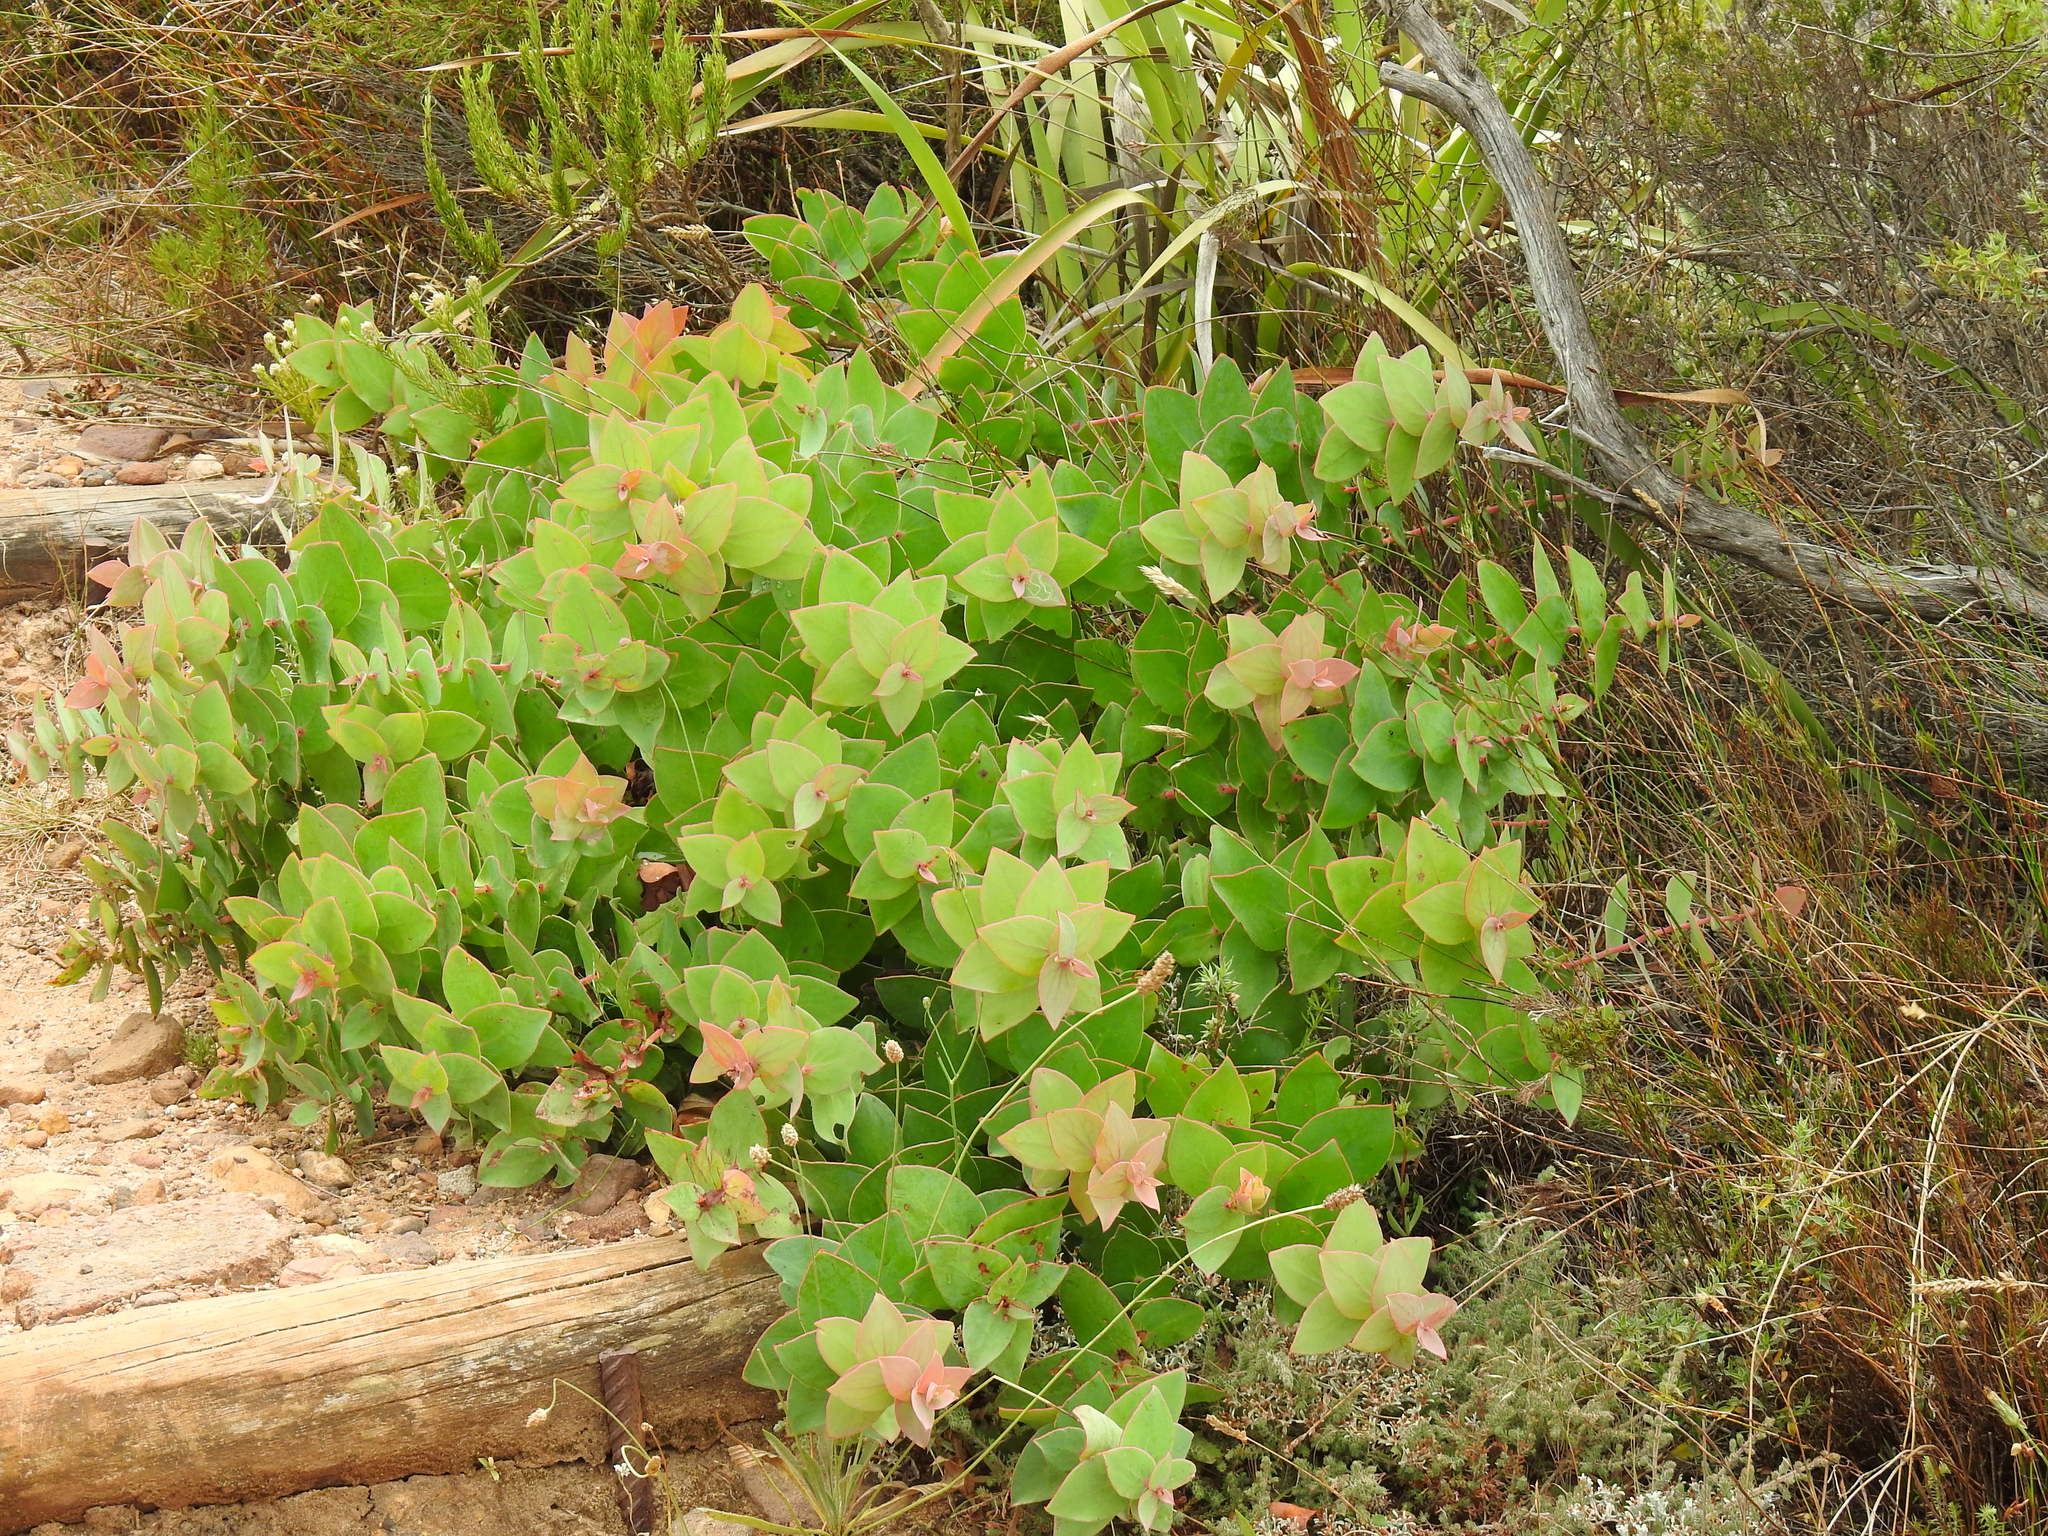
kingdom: Plantae
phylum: Tracheophyta
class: Magnoliopsida
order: Proteales
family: Proteaceae
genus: Protea
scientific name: Protea amplexicaulis
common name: Clasping-leaf sugarbush
